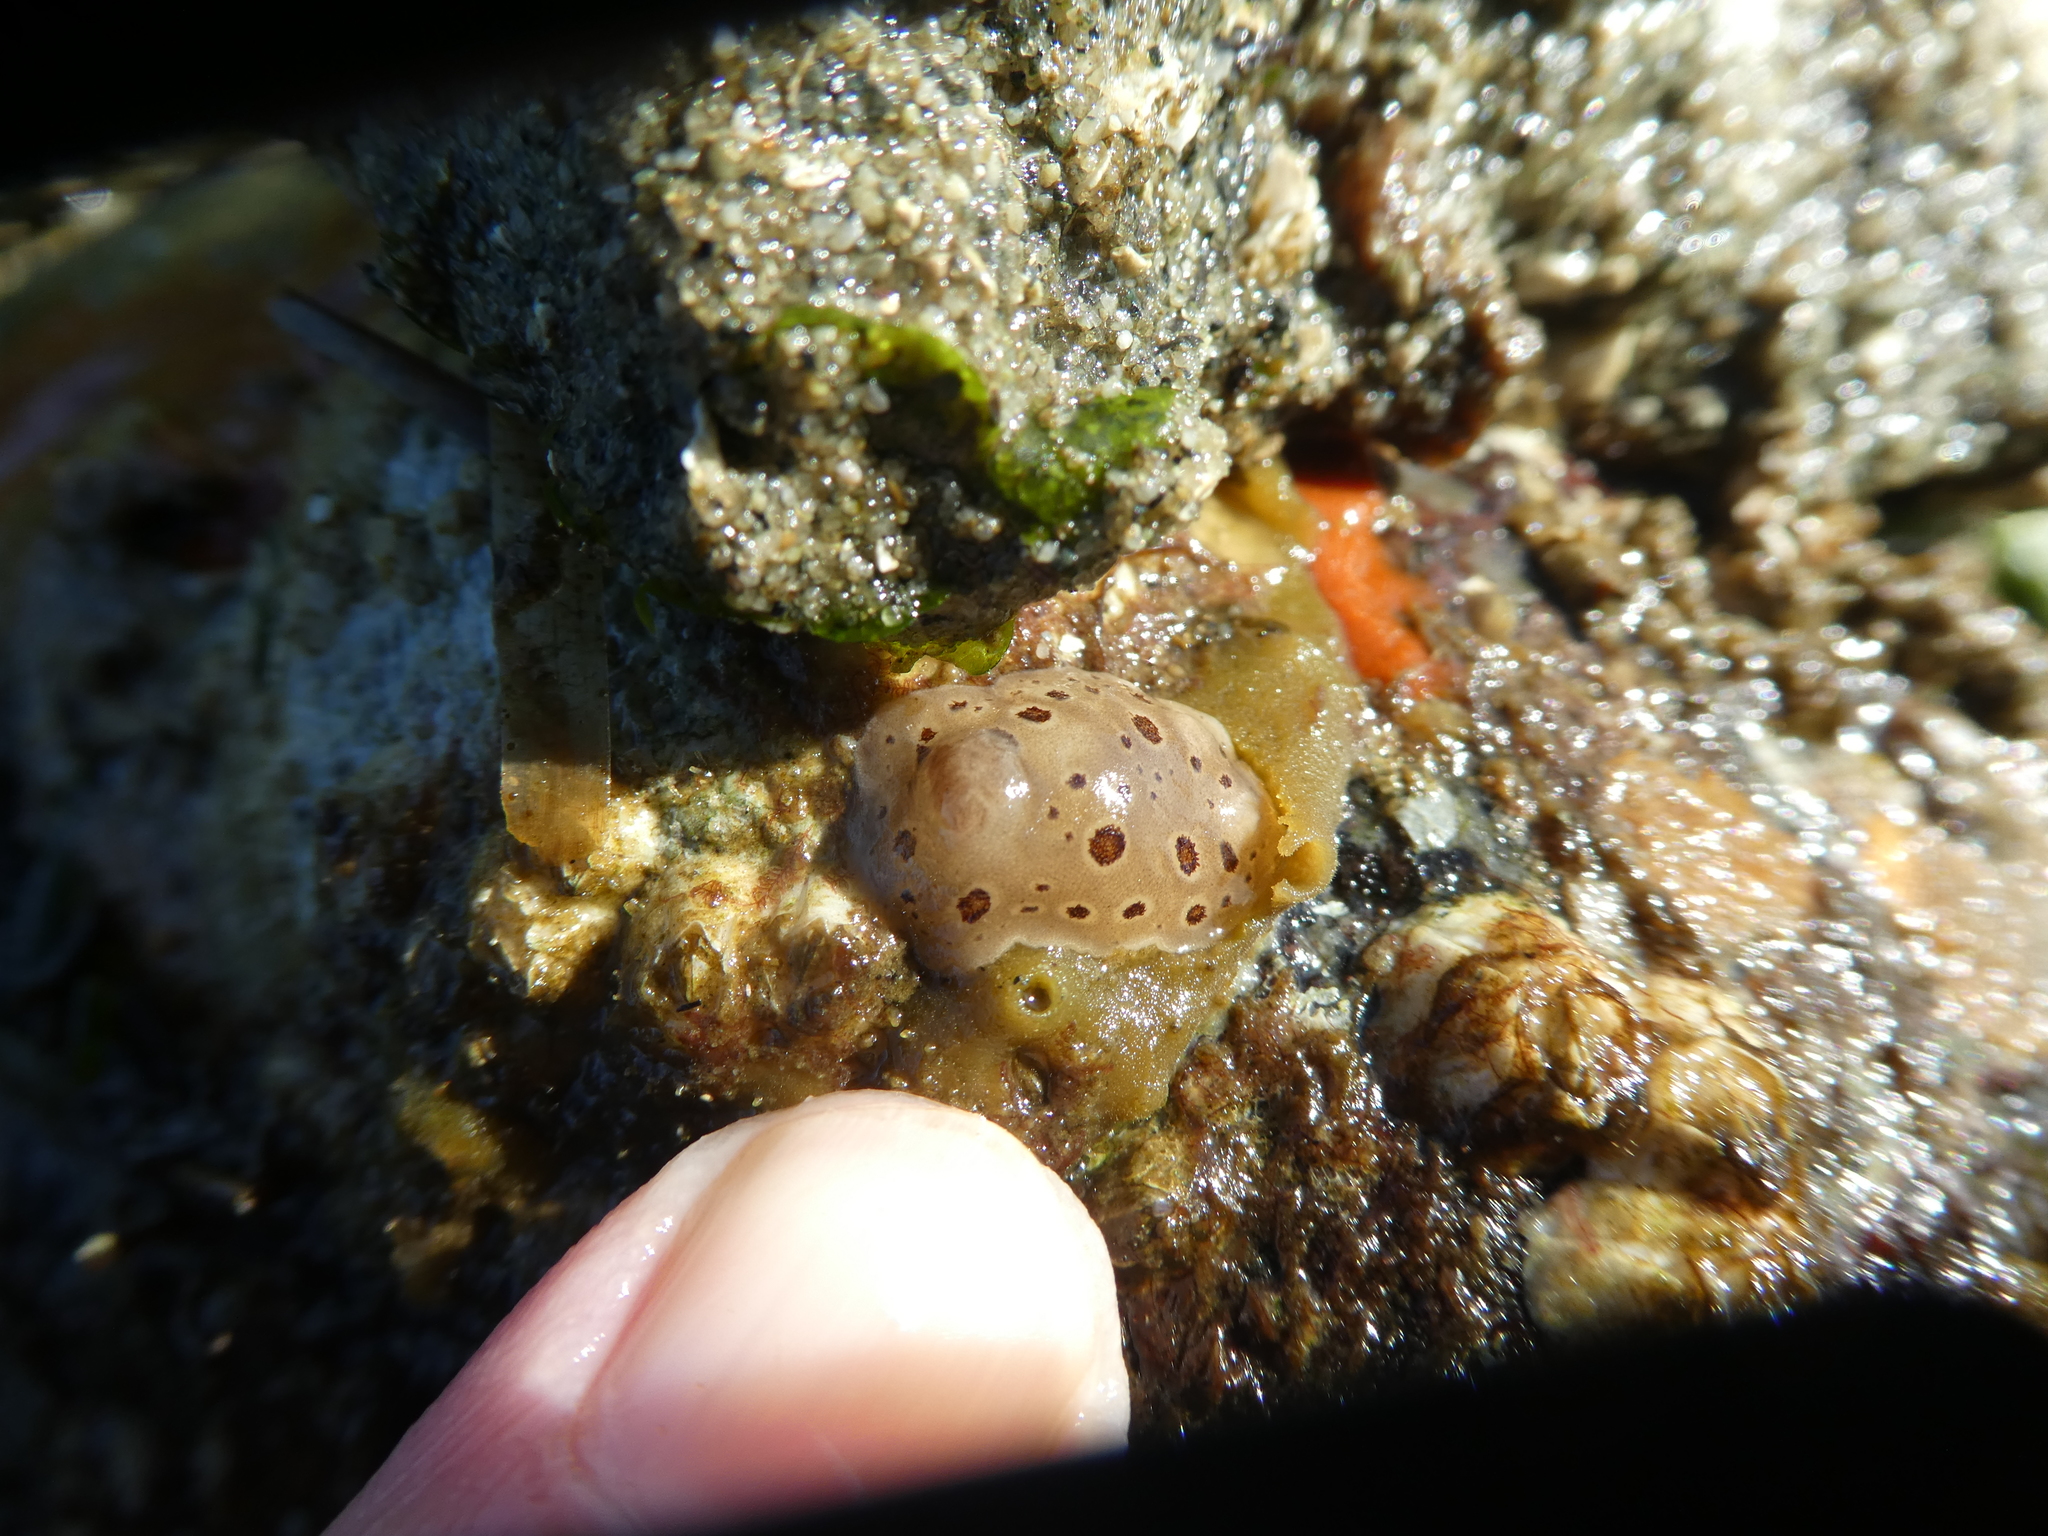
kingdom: Animalia
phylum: Mollusca
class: Gastropoda
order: Nudibranchia
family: Discodorididae
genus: Diaulula
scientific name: Diaulula odonoghuei
